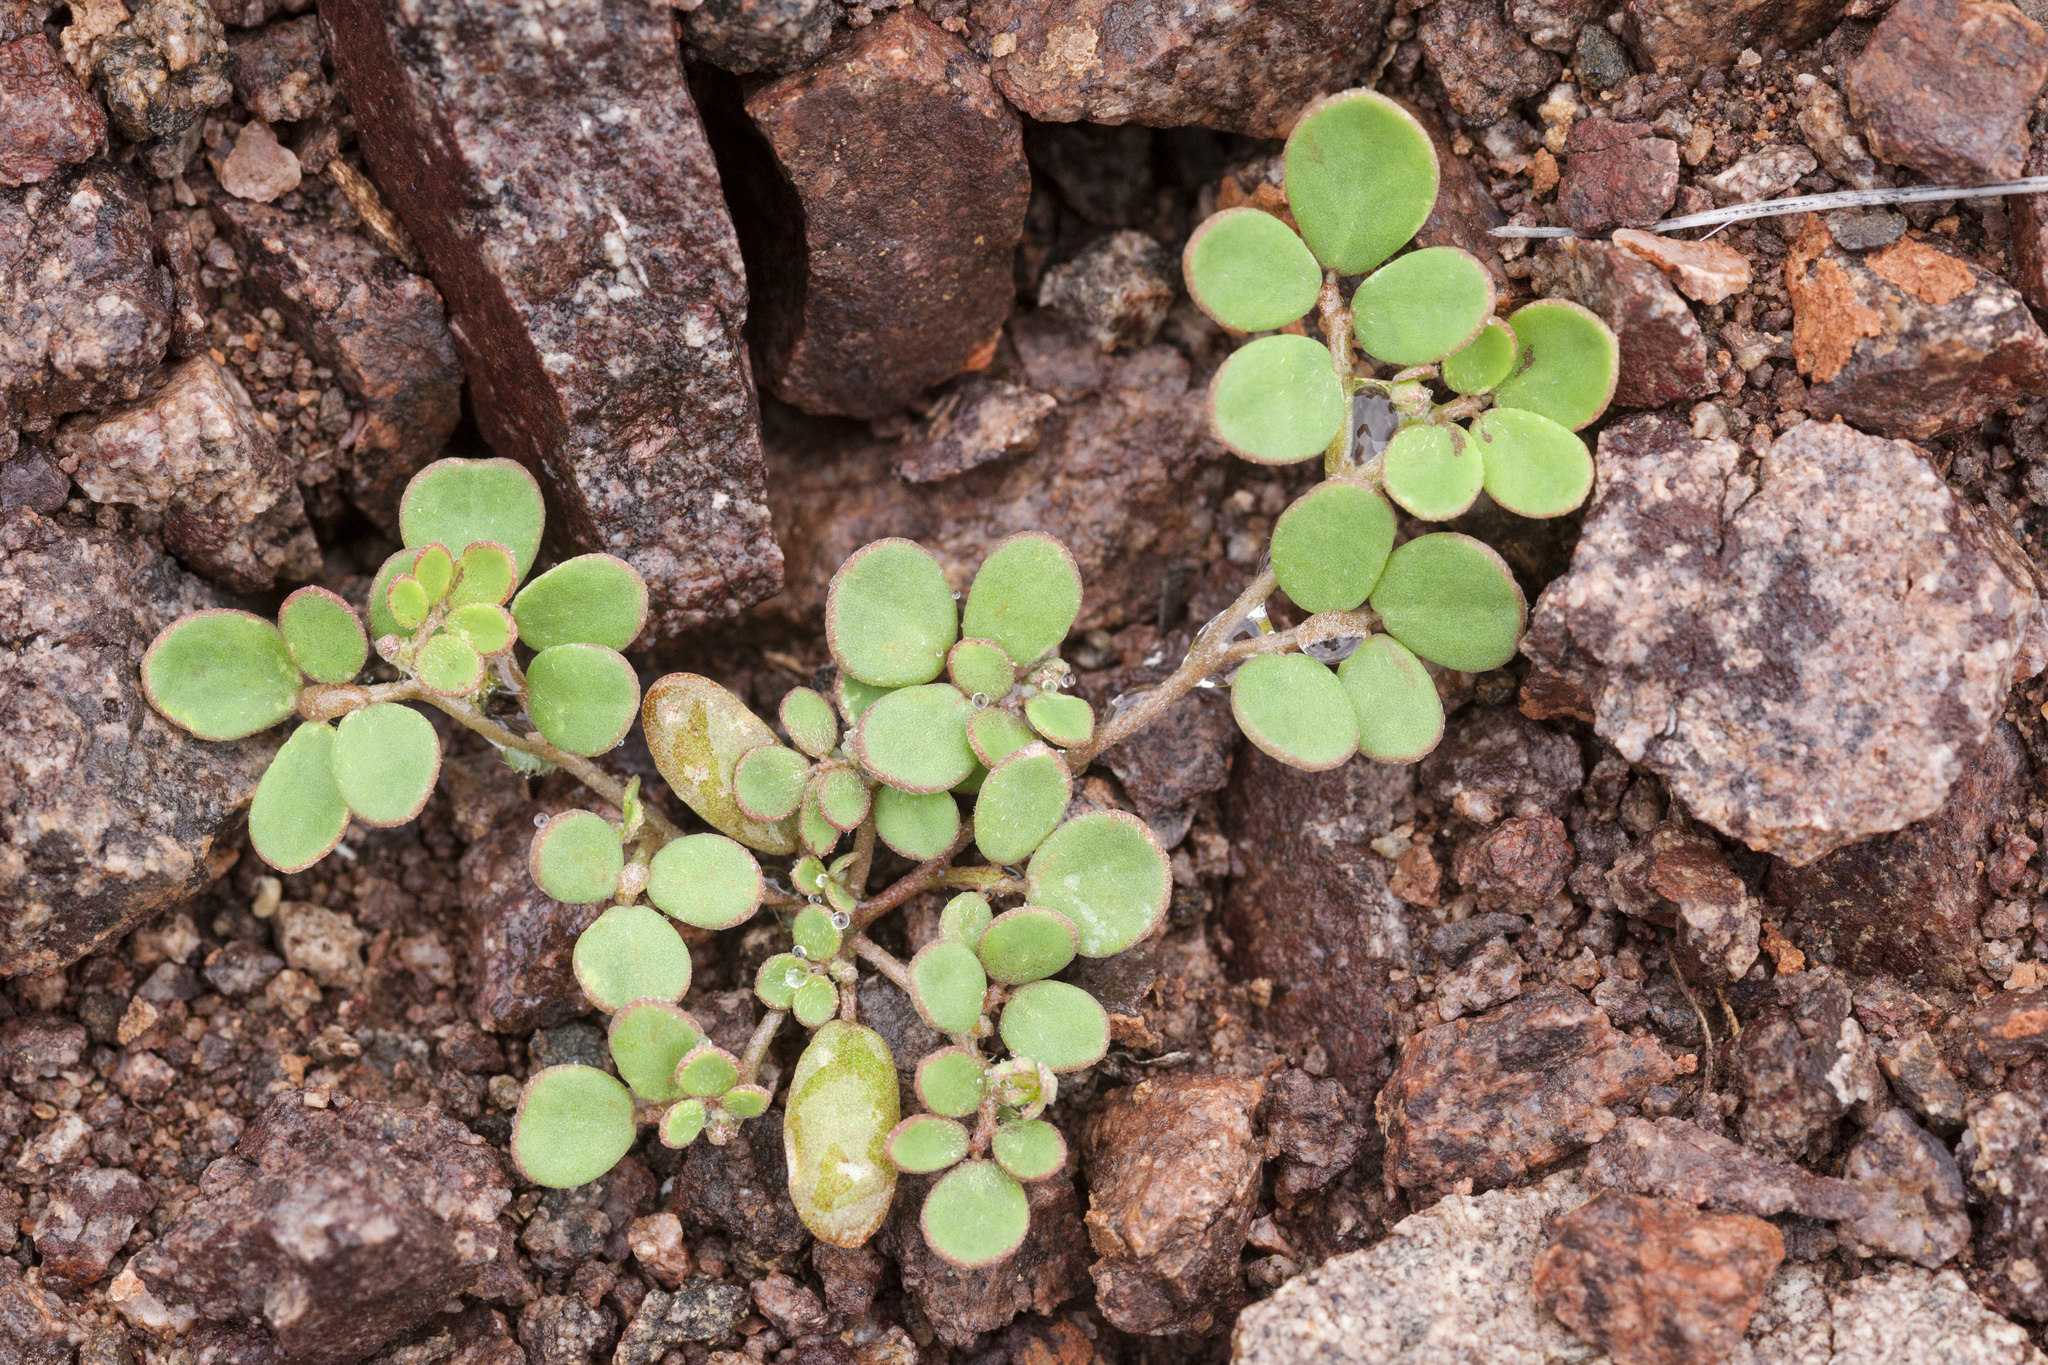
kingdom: Plantae
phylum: Tracheophyta
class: Magnoliopsida
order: Fabales
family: Fabaceae
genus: Acmispon
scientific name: Acmispon maritimus
